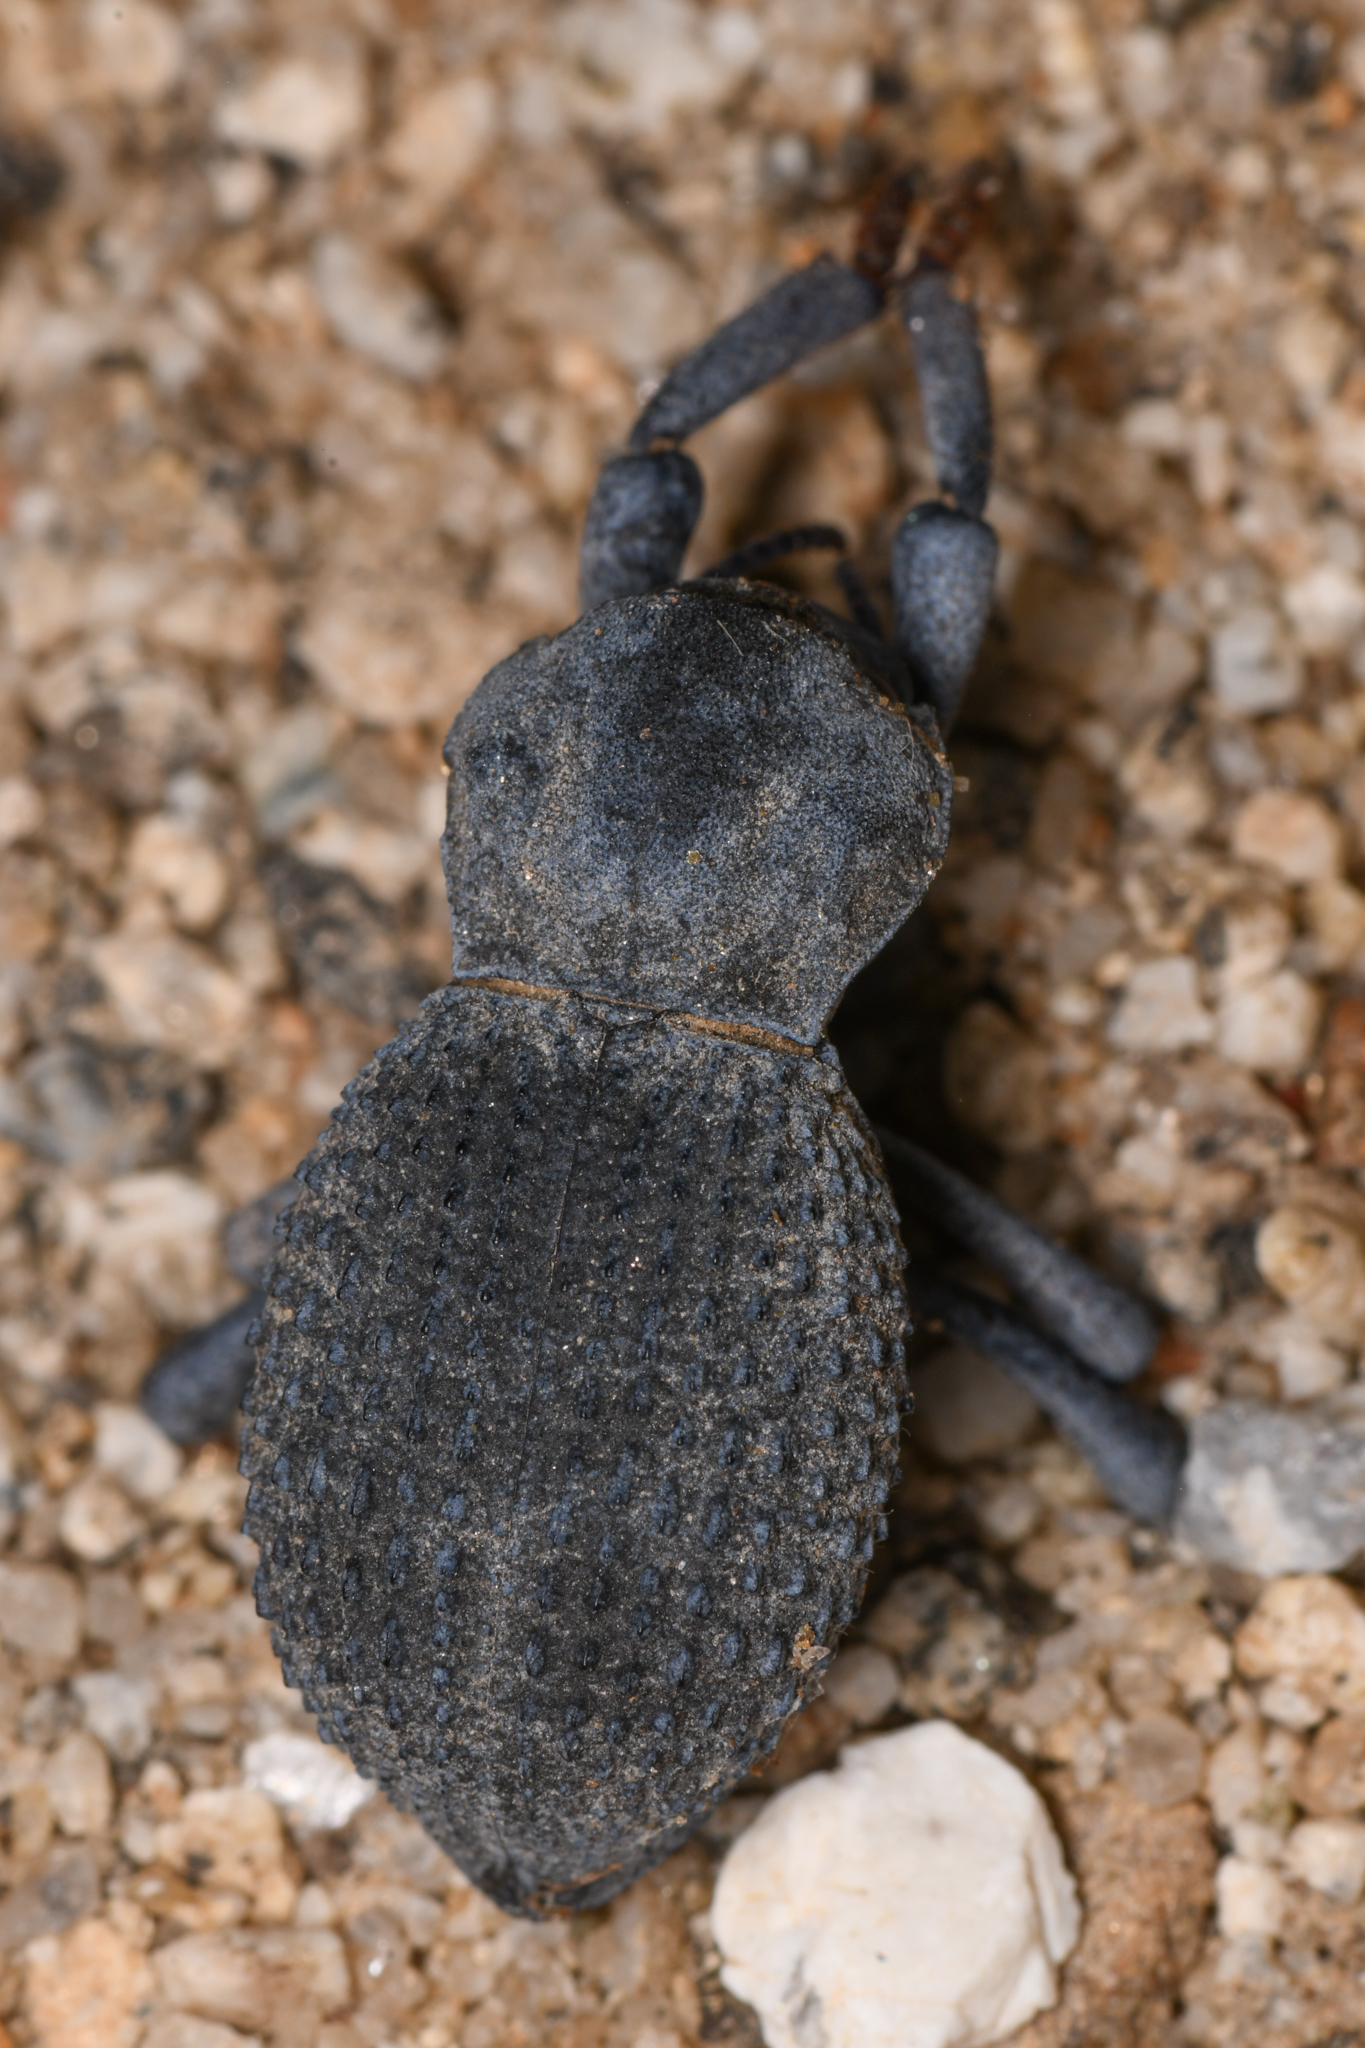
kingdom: Animalia
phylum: Arthropoda
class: Insecta
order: Coleoptera
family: Tenebrionidae
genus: Asbolus
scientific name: Asbolus verrucosus
